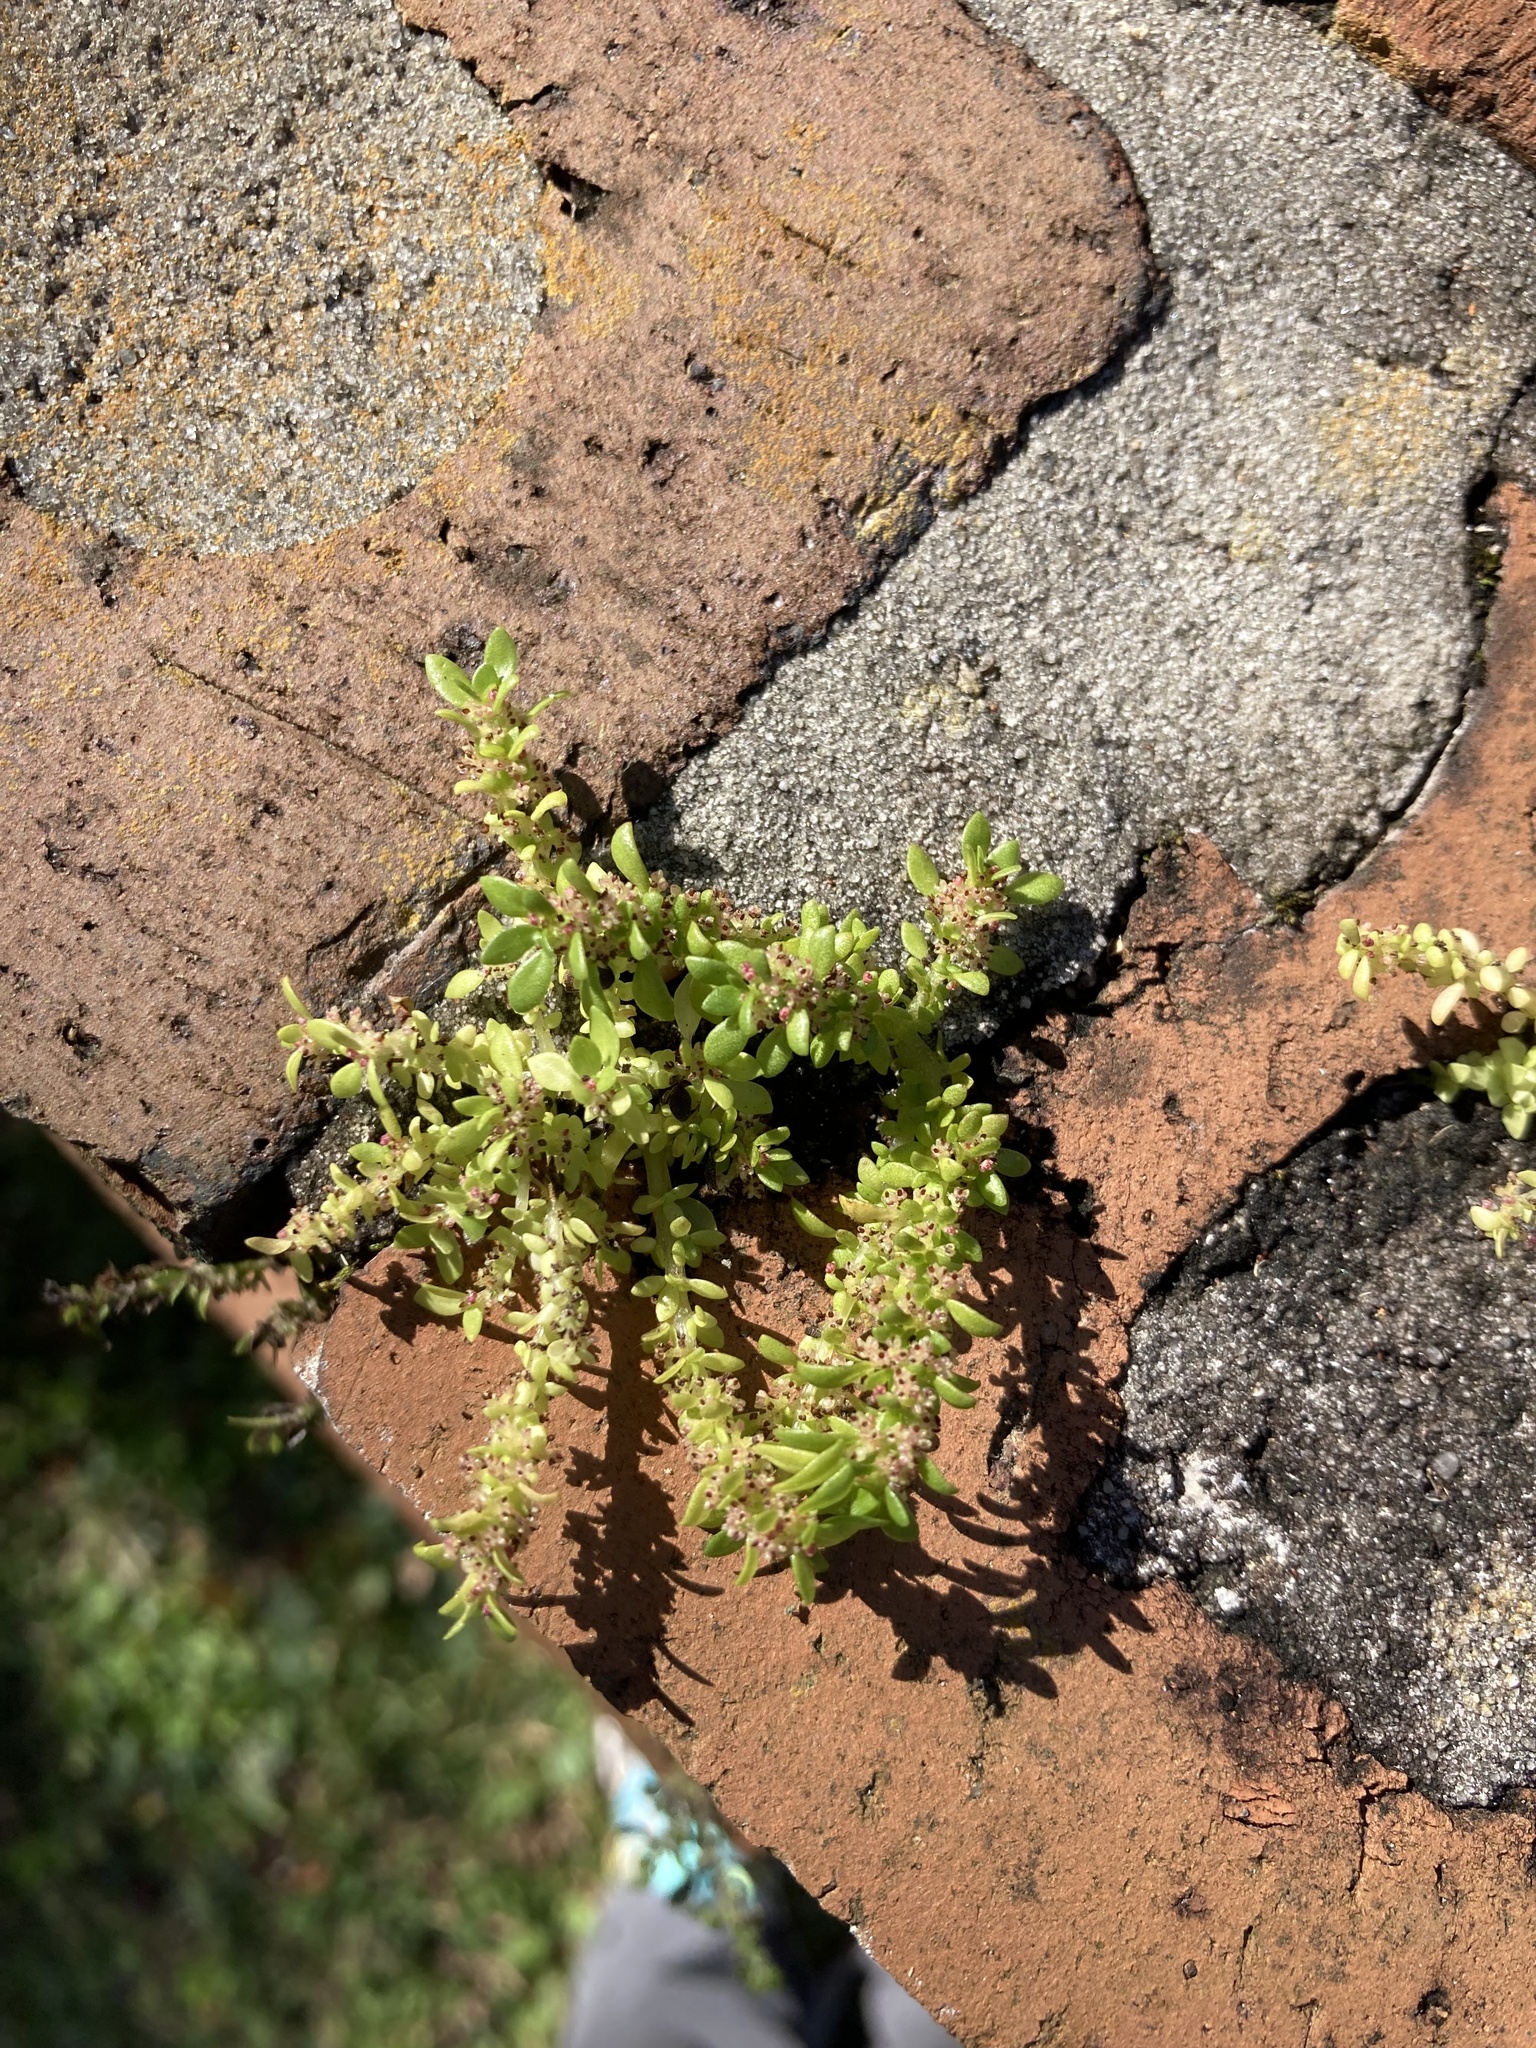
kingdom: Plantae
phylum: Tracheophyta
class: Magnoliopsida
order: Rosales
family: Urticaceae
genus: Pilea
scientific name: Pilea microphylla
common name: Artillery-plant
